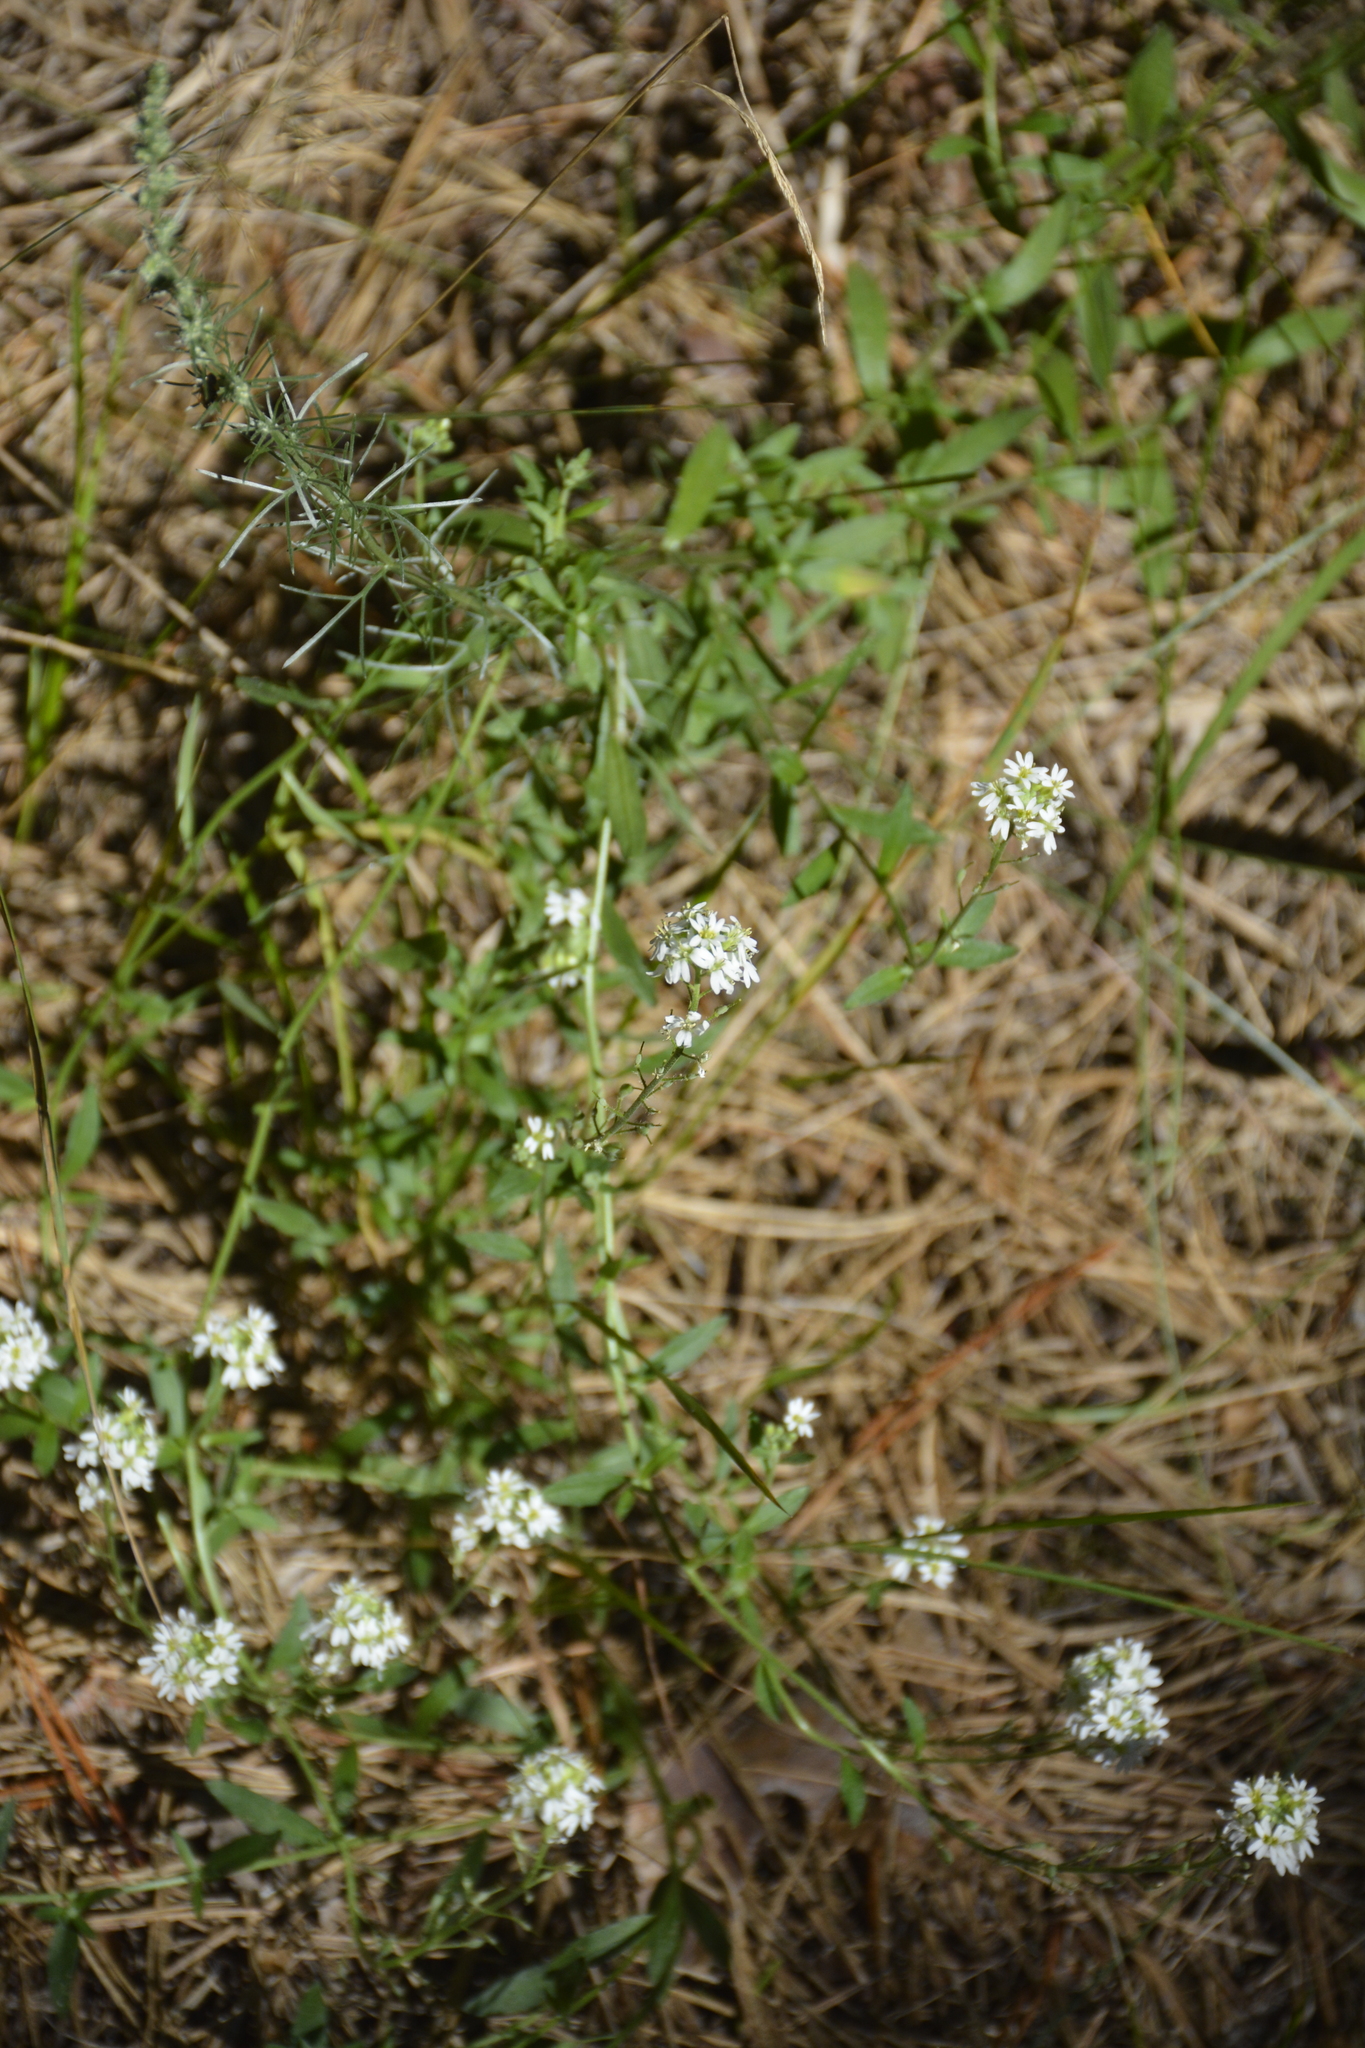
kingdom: Plantae
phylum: Tracheophyta
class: Magnoliopsida
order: Brassicales
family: Brassicaceae
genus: Berteroa
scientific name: Berteroa incana
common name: Hoary alison
